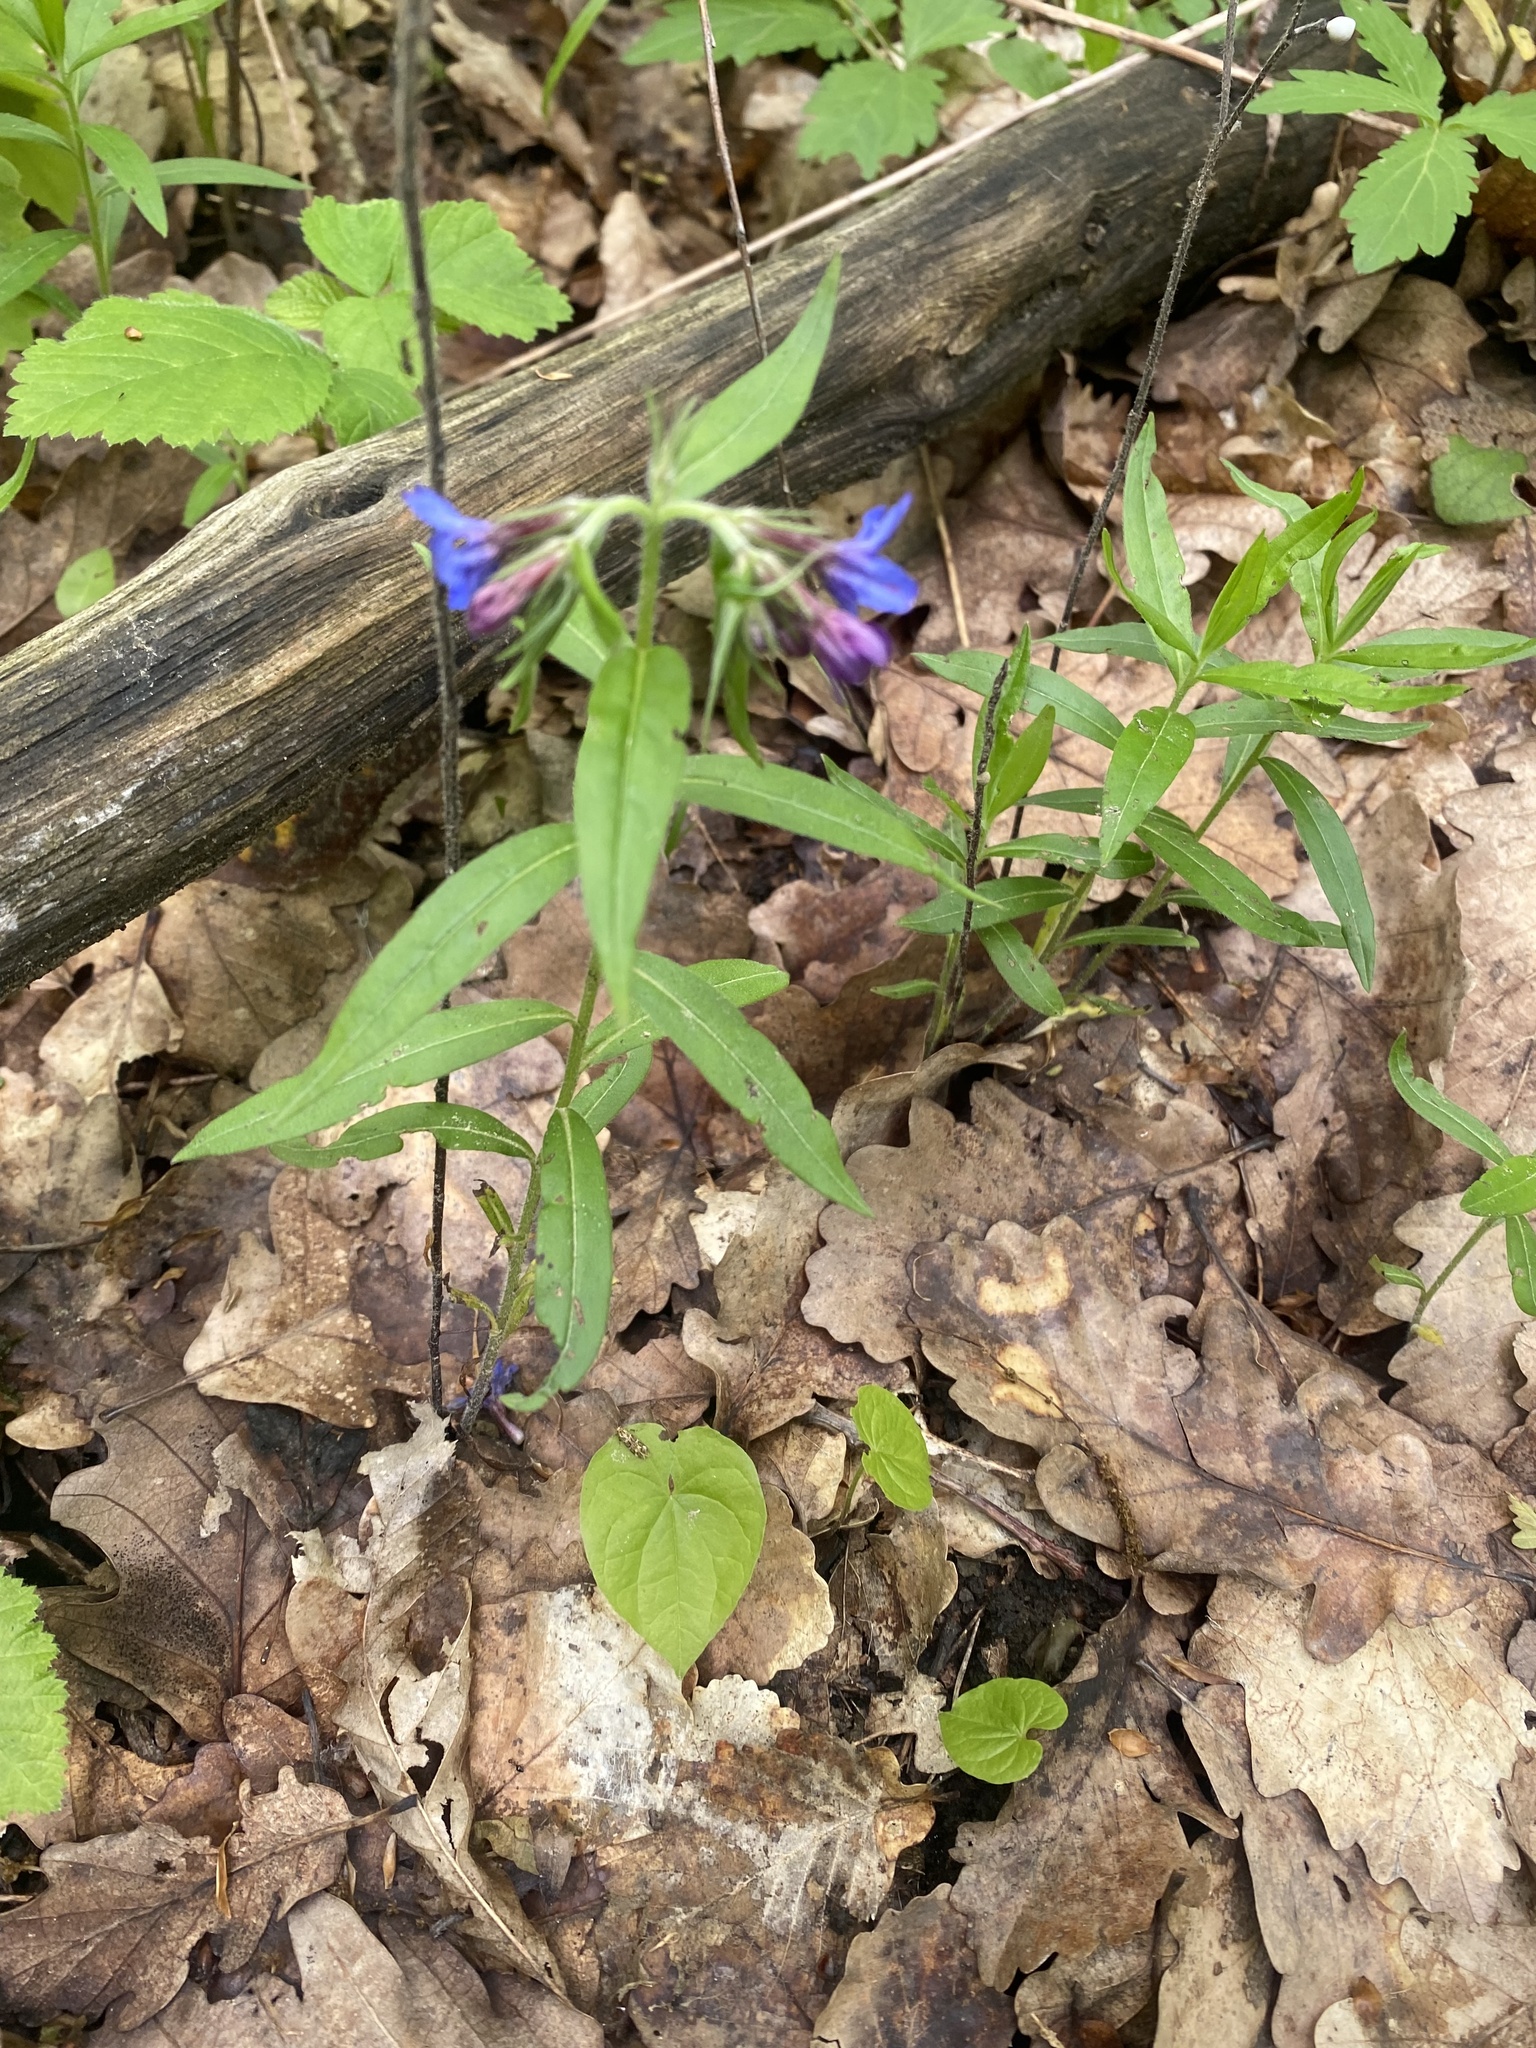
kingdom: Plantae
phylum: Tracheophyta
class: Magnoliopsida
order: Boraginales
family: Boraginaceae
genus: Aegonychon
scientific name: Aegonychon purpurocaeruleum
